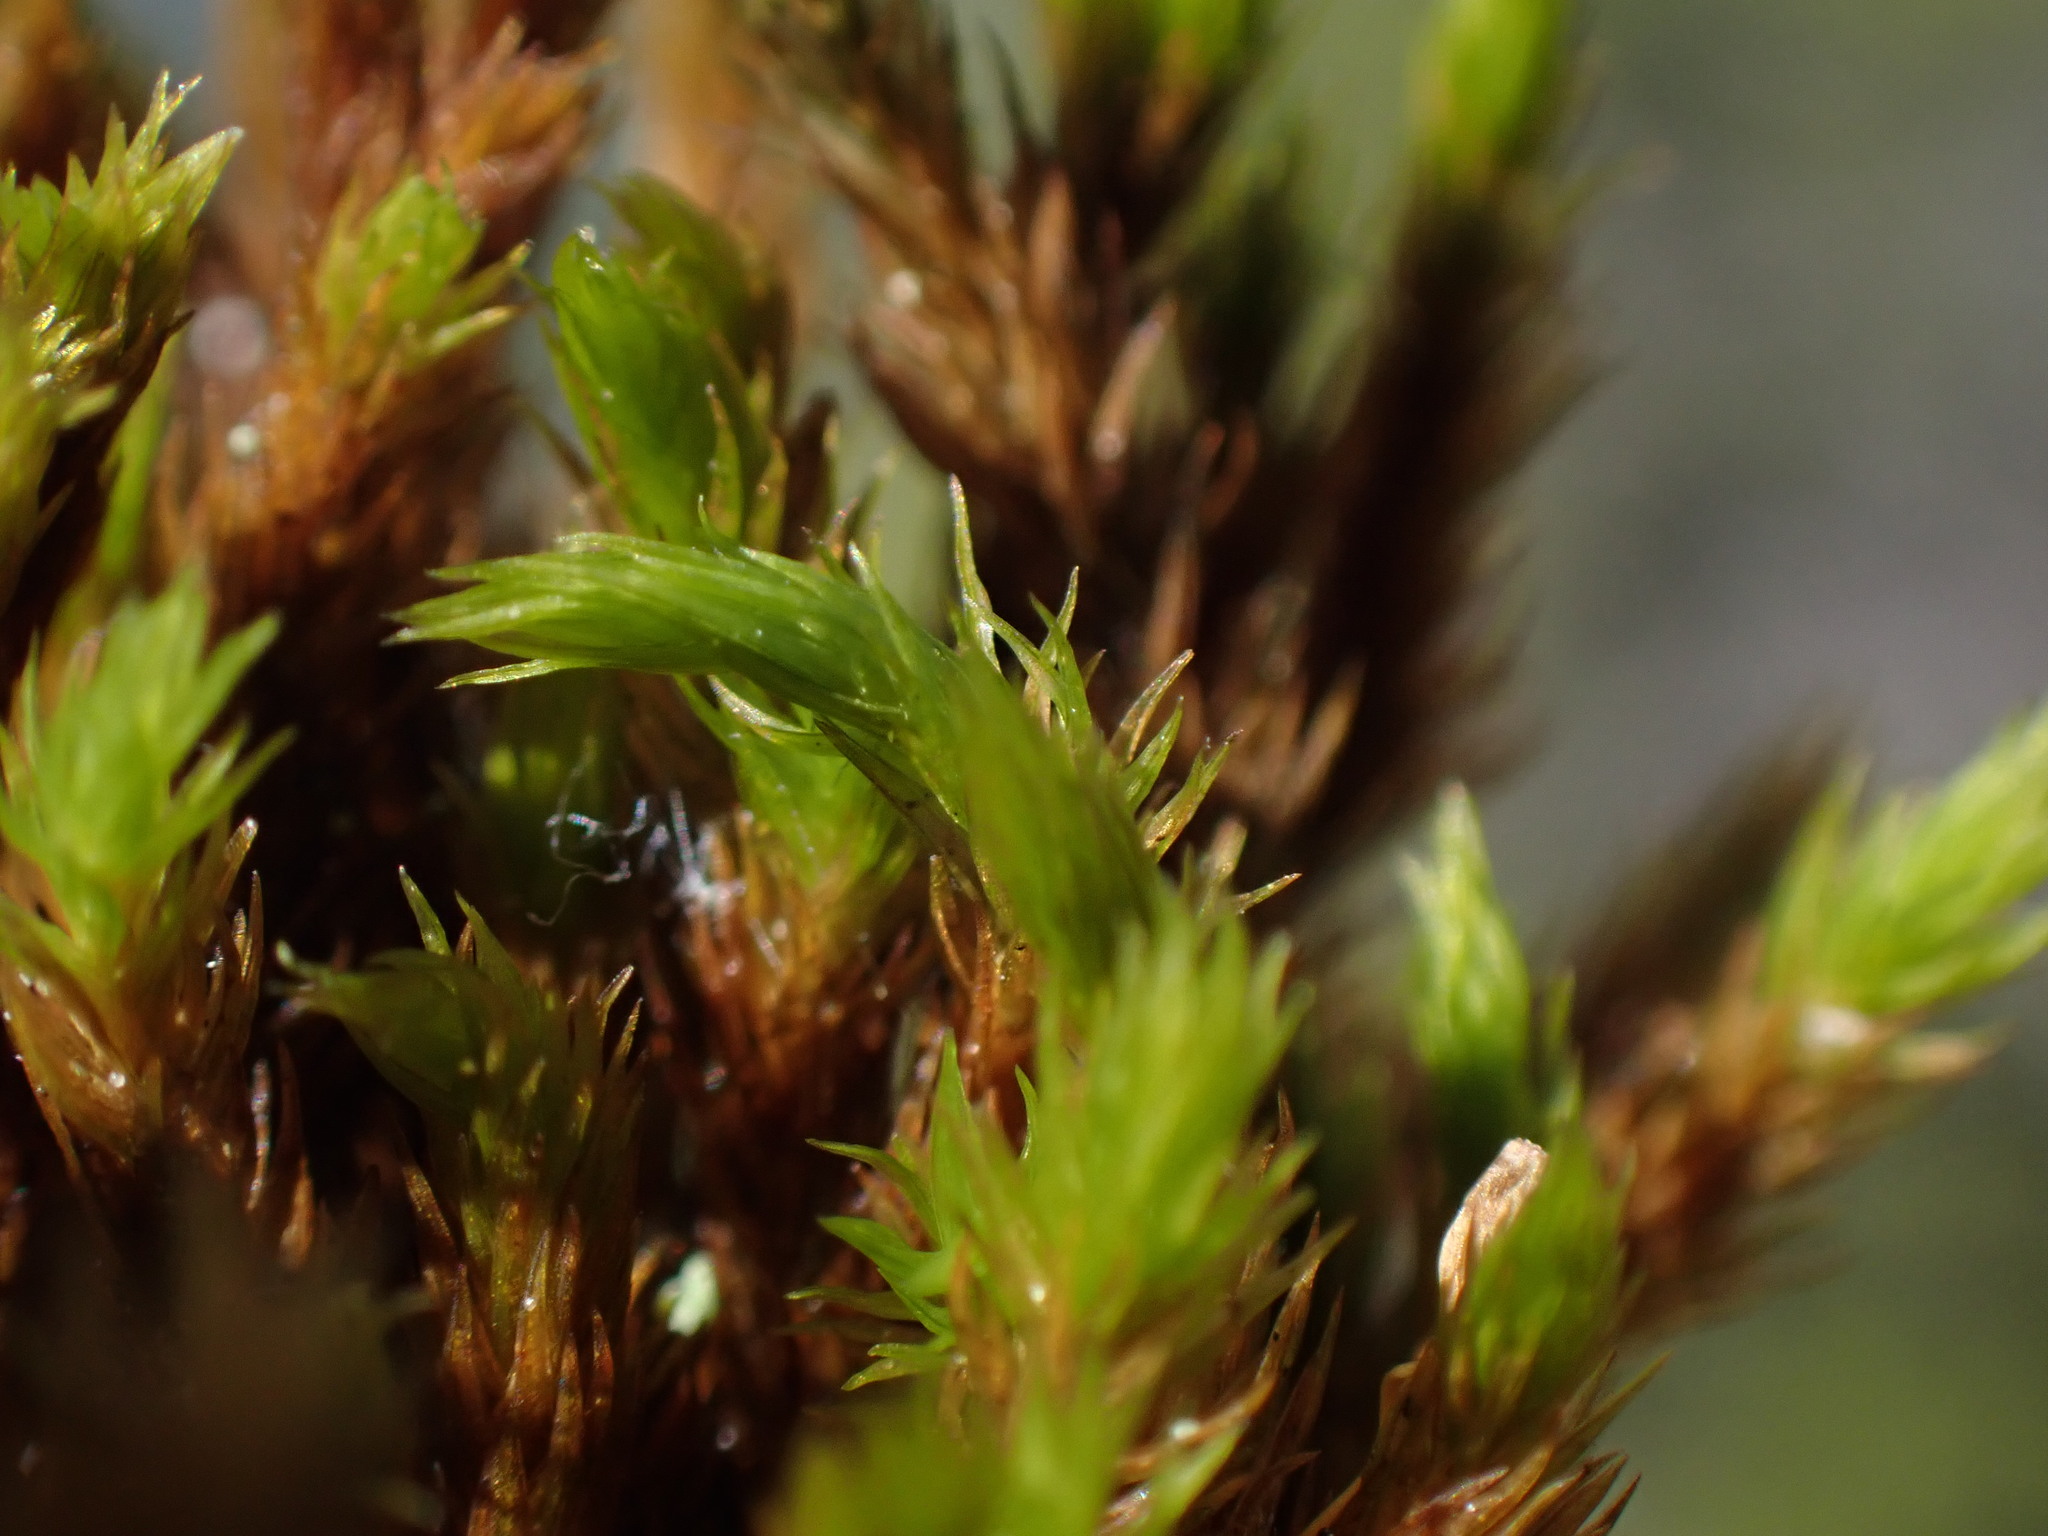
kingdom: Plantae
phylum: Bryophyta
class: Bryopsida
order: Grimmiales
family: Grimmiaceae
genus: Grimmia
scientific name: Grimmia ramondii
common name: Spreading-leaved grimmia
